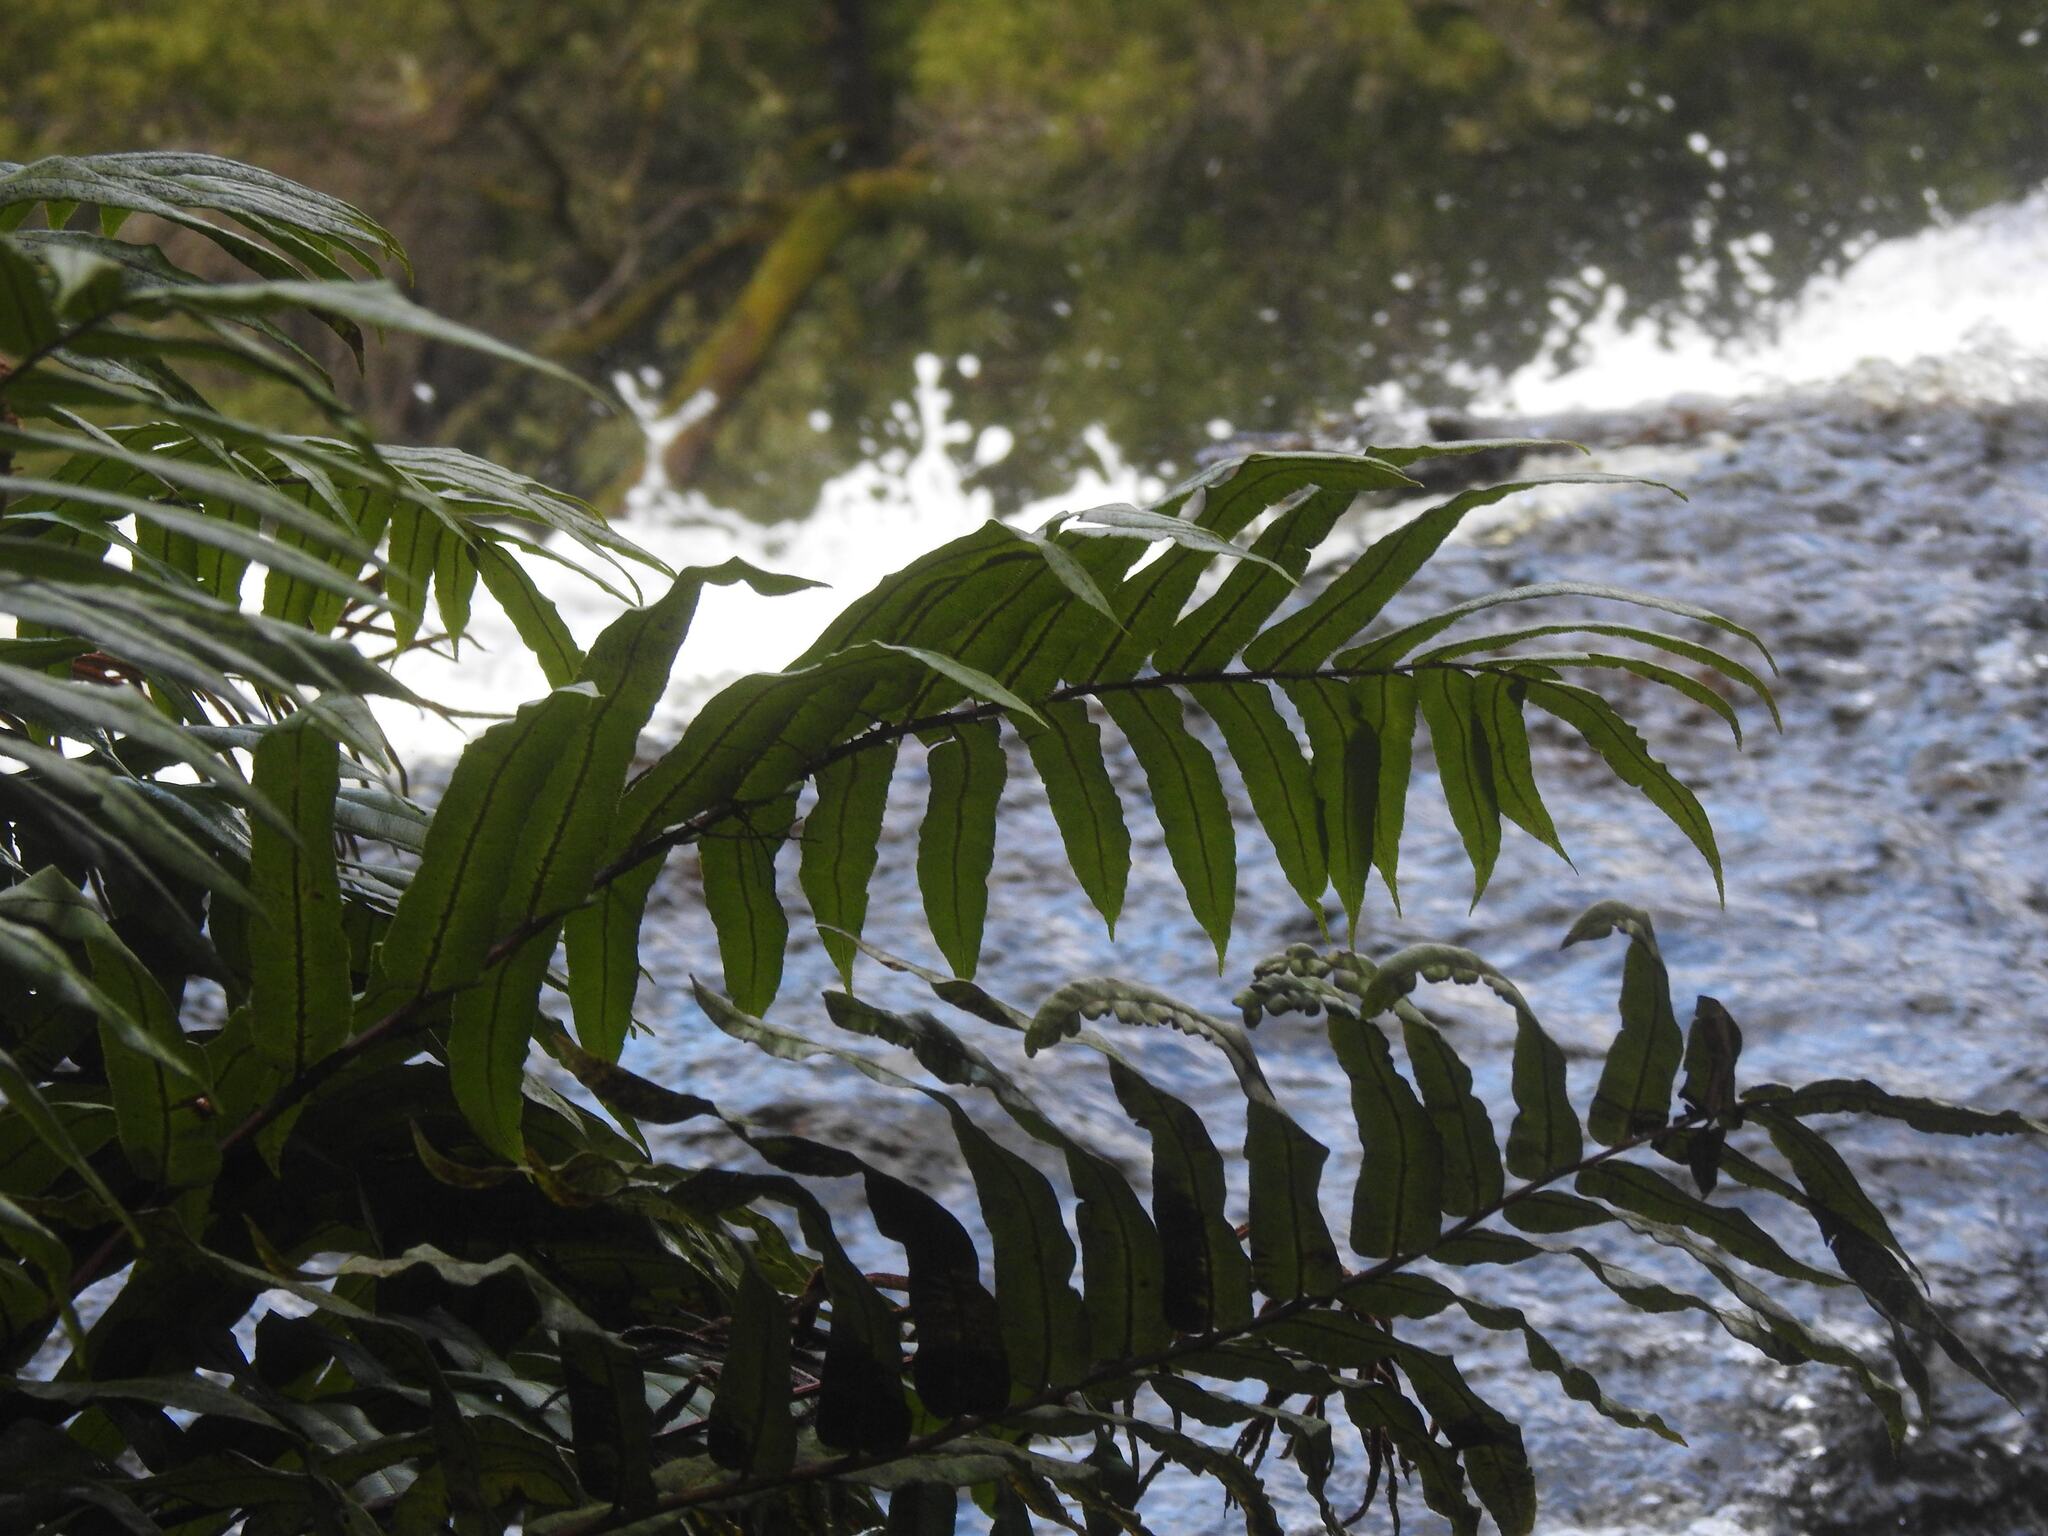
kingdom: Plantae
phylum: Tracheophyta
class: Polypodiopsida
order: Polypodiales
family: Blechnaceae
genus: Parablechnum
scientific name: Parablechnum wattsii
